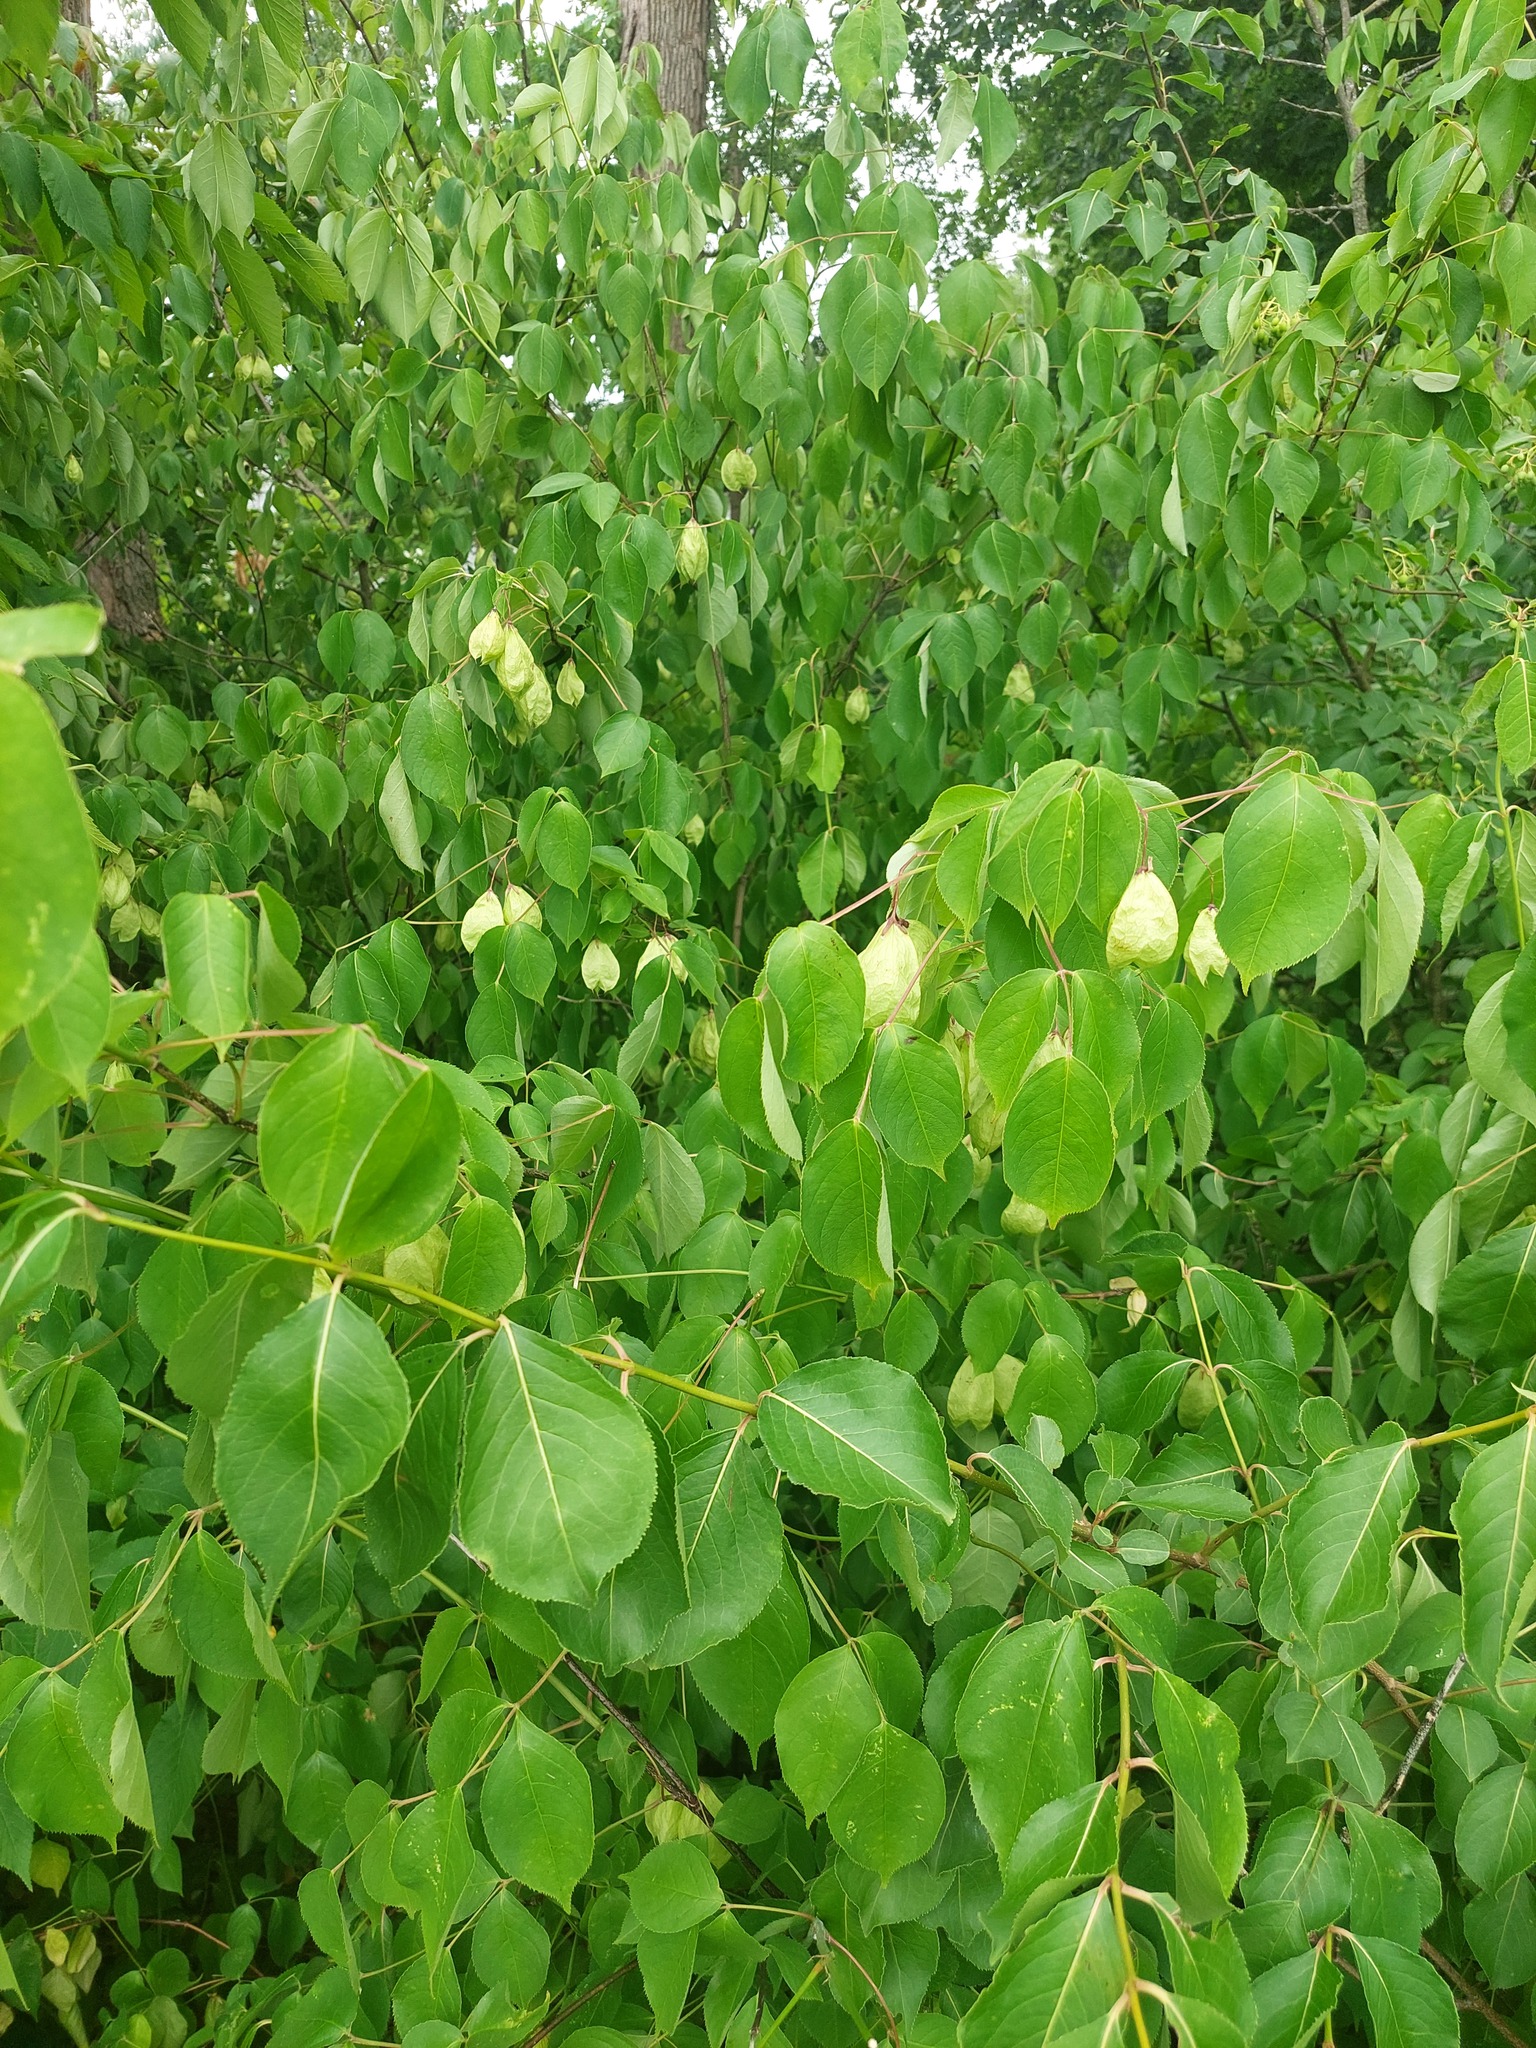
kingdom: Plantae
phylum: Tracheophyta
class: Magnoliopsida
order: Crossosomatales
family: Staphyleaceae
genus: Staphylea
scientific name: Staphylea trifolia
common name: American bladdernut
